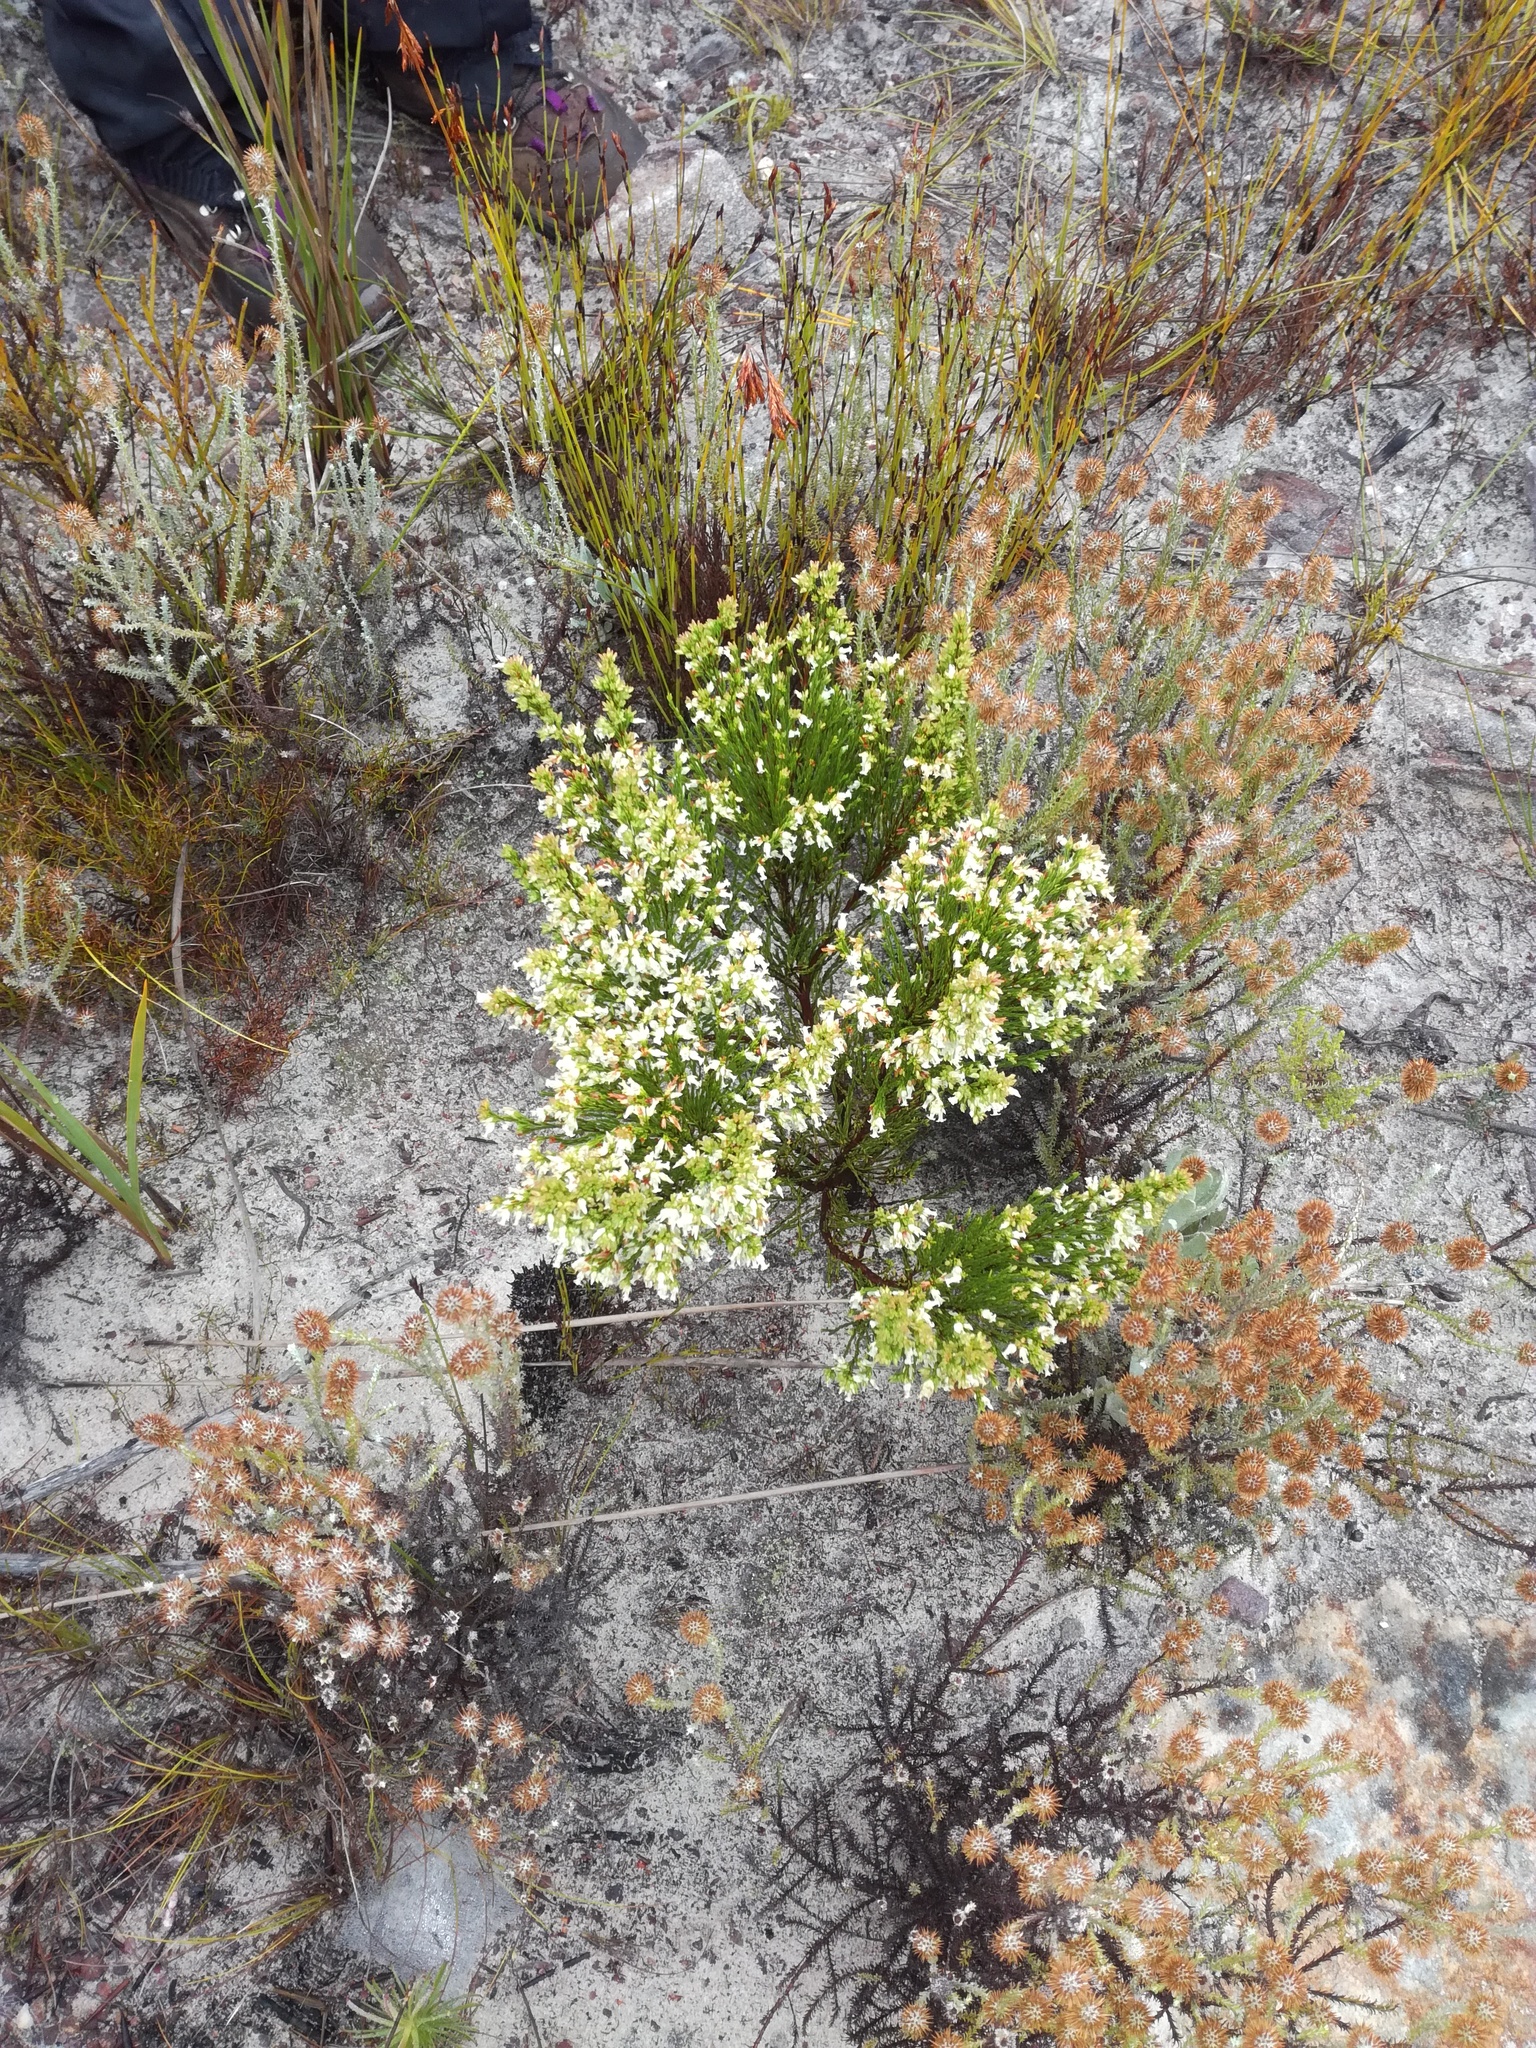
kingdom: Plantae
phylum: Tracheophyta
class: Magnoliopsida
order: Ericales
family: Ericaceae
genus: Erica
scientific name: Erica lutea
